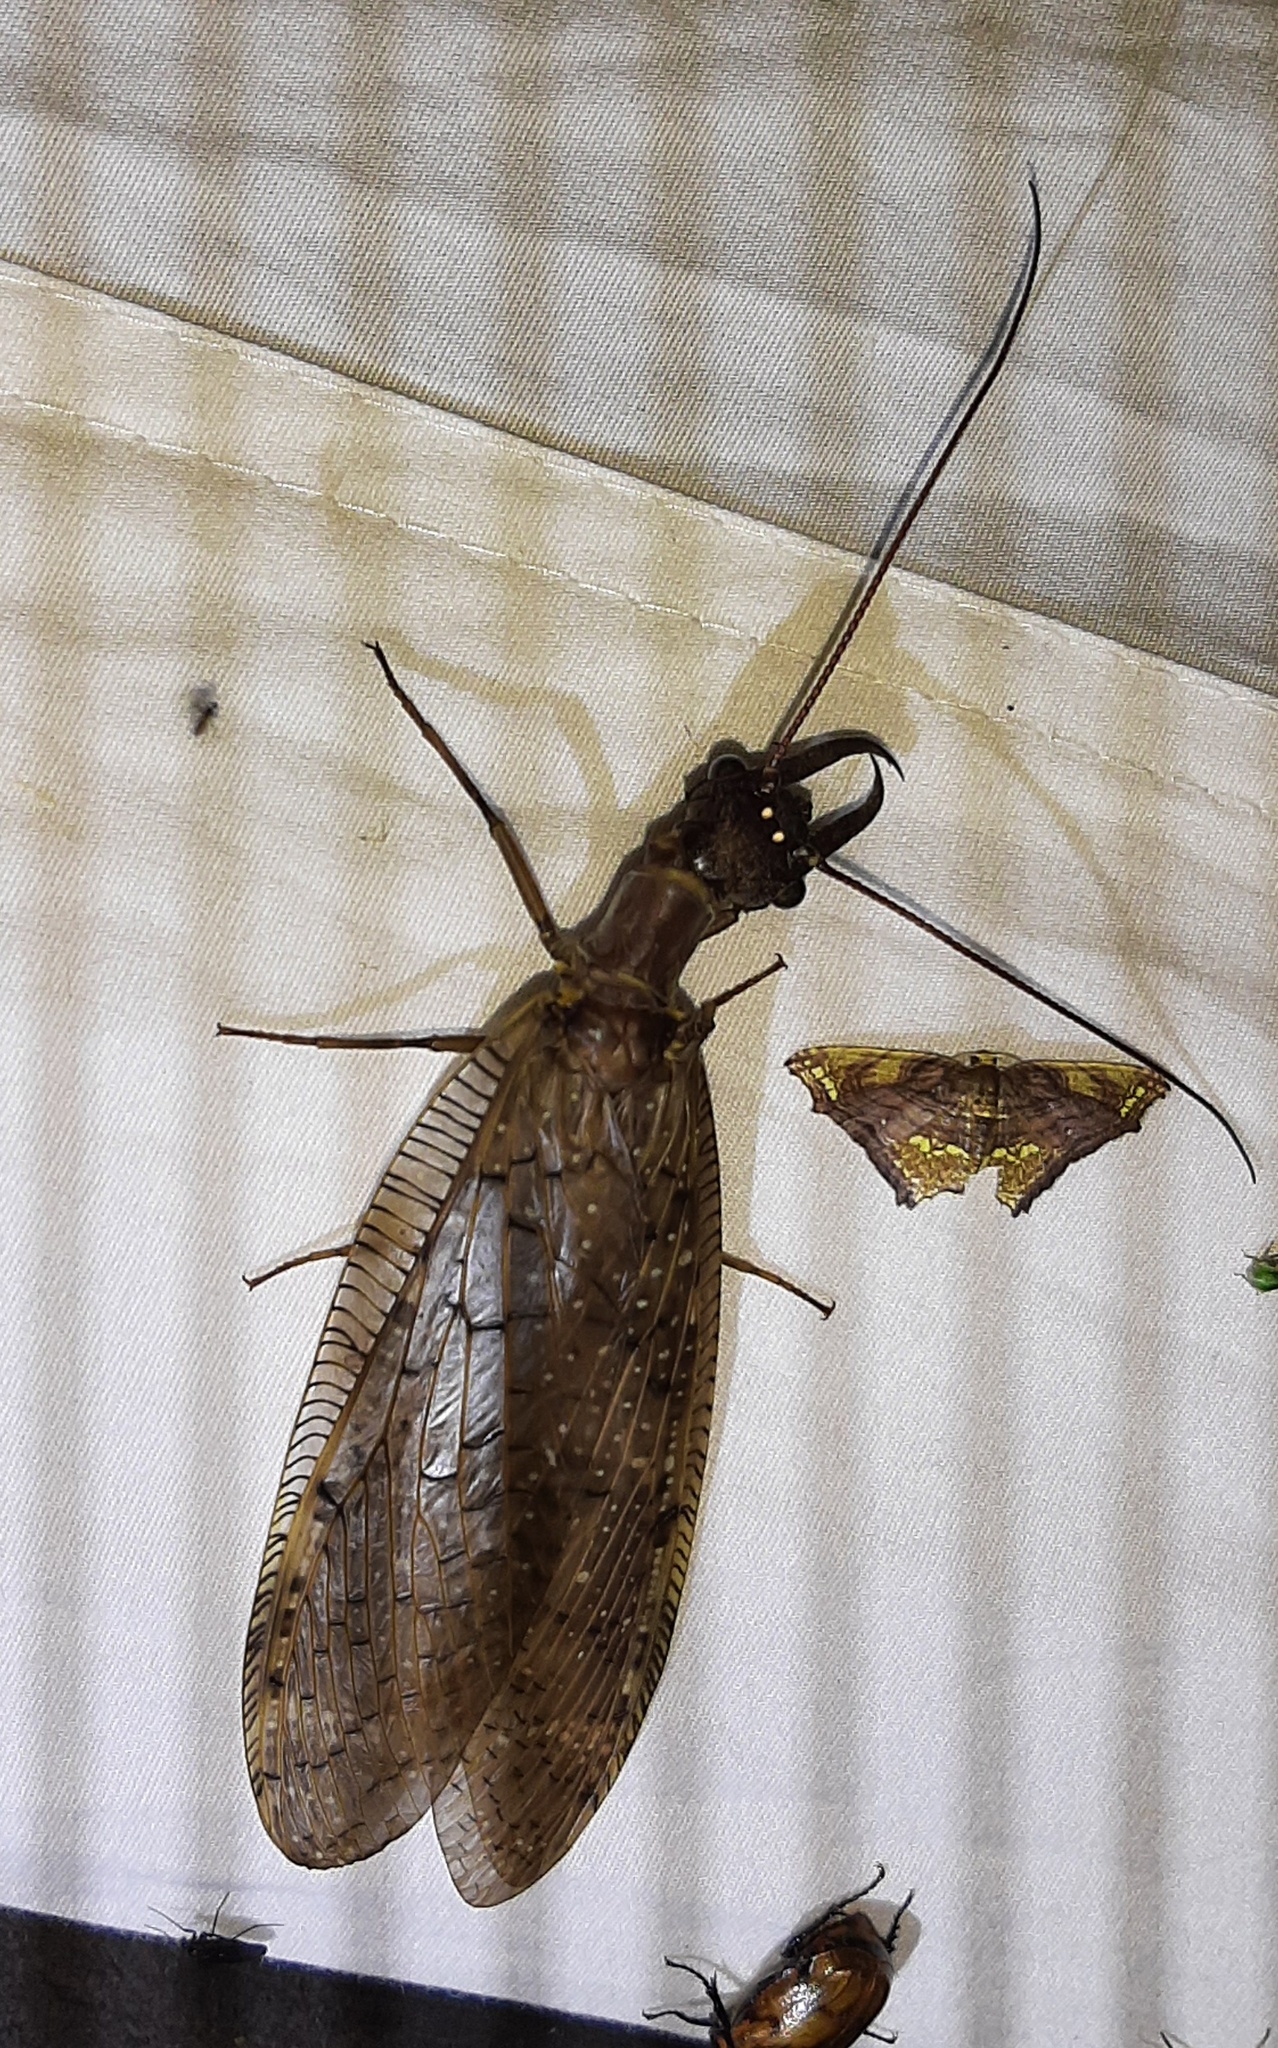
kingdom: Animalia
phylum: Arthropoda
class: Insecta
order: Megaloptera
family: Corydalidae
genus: Corydalus
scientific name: Corydalus holzenthali
